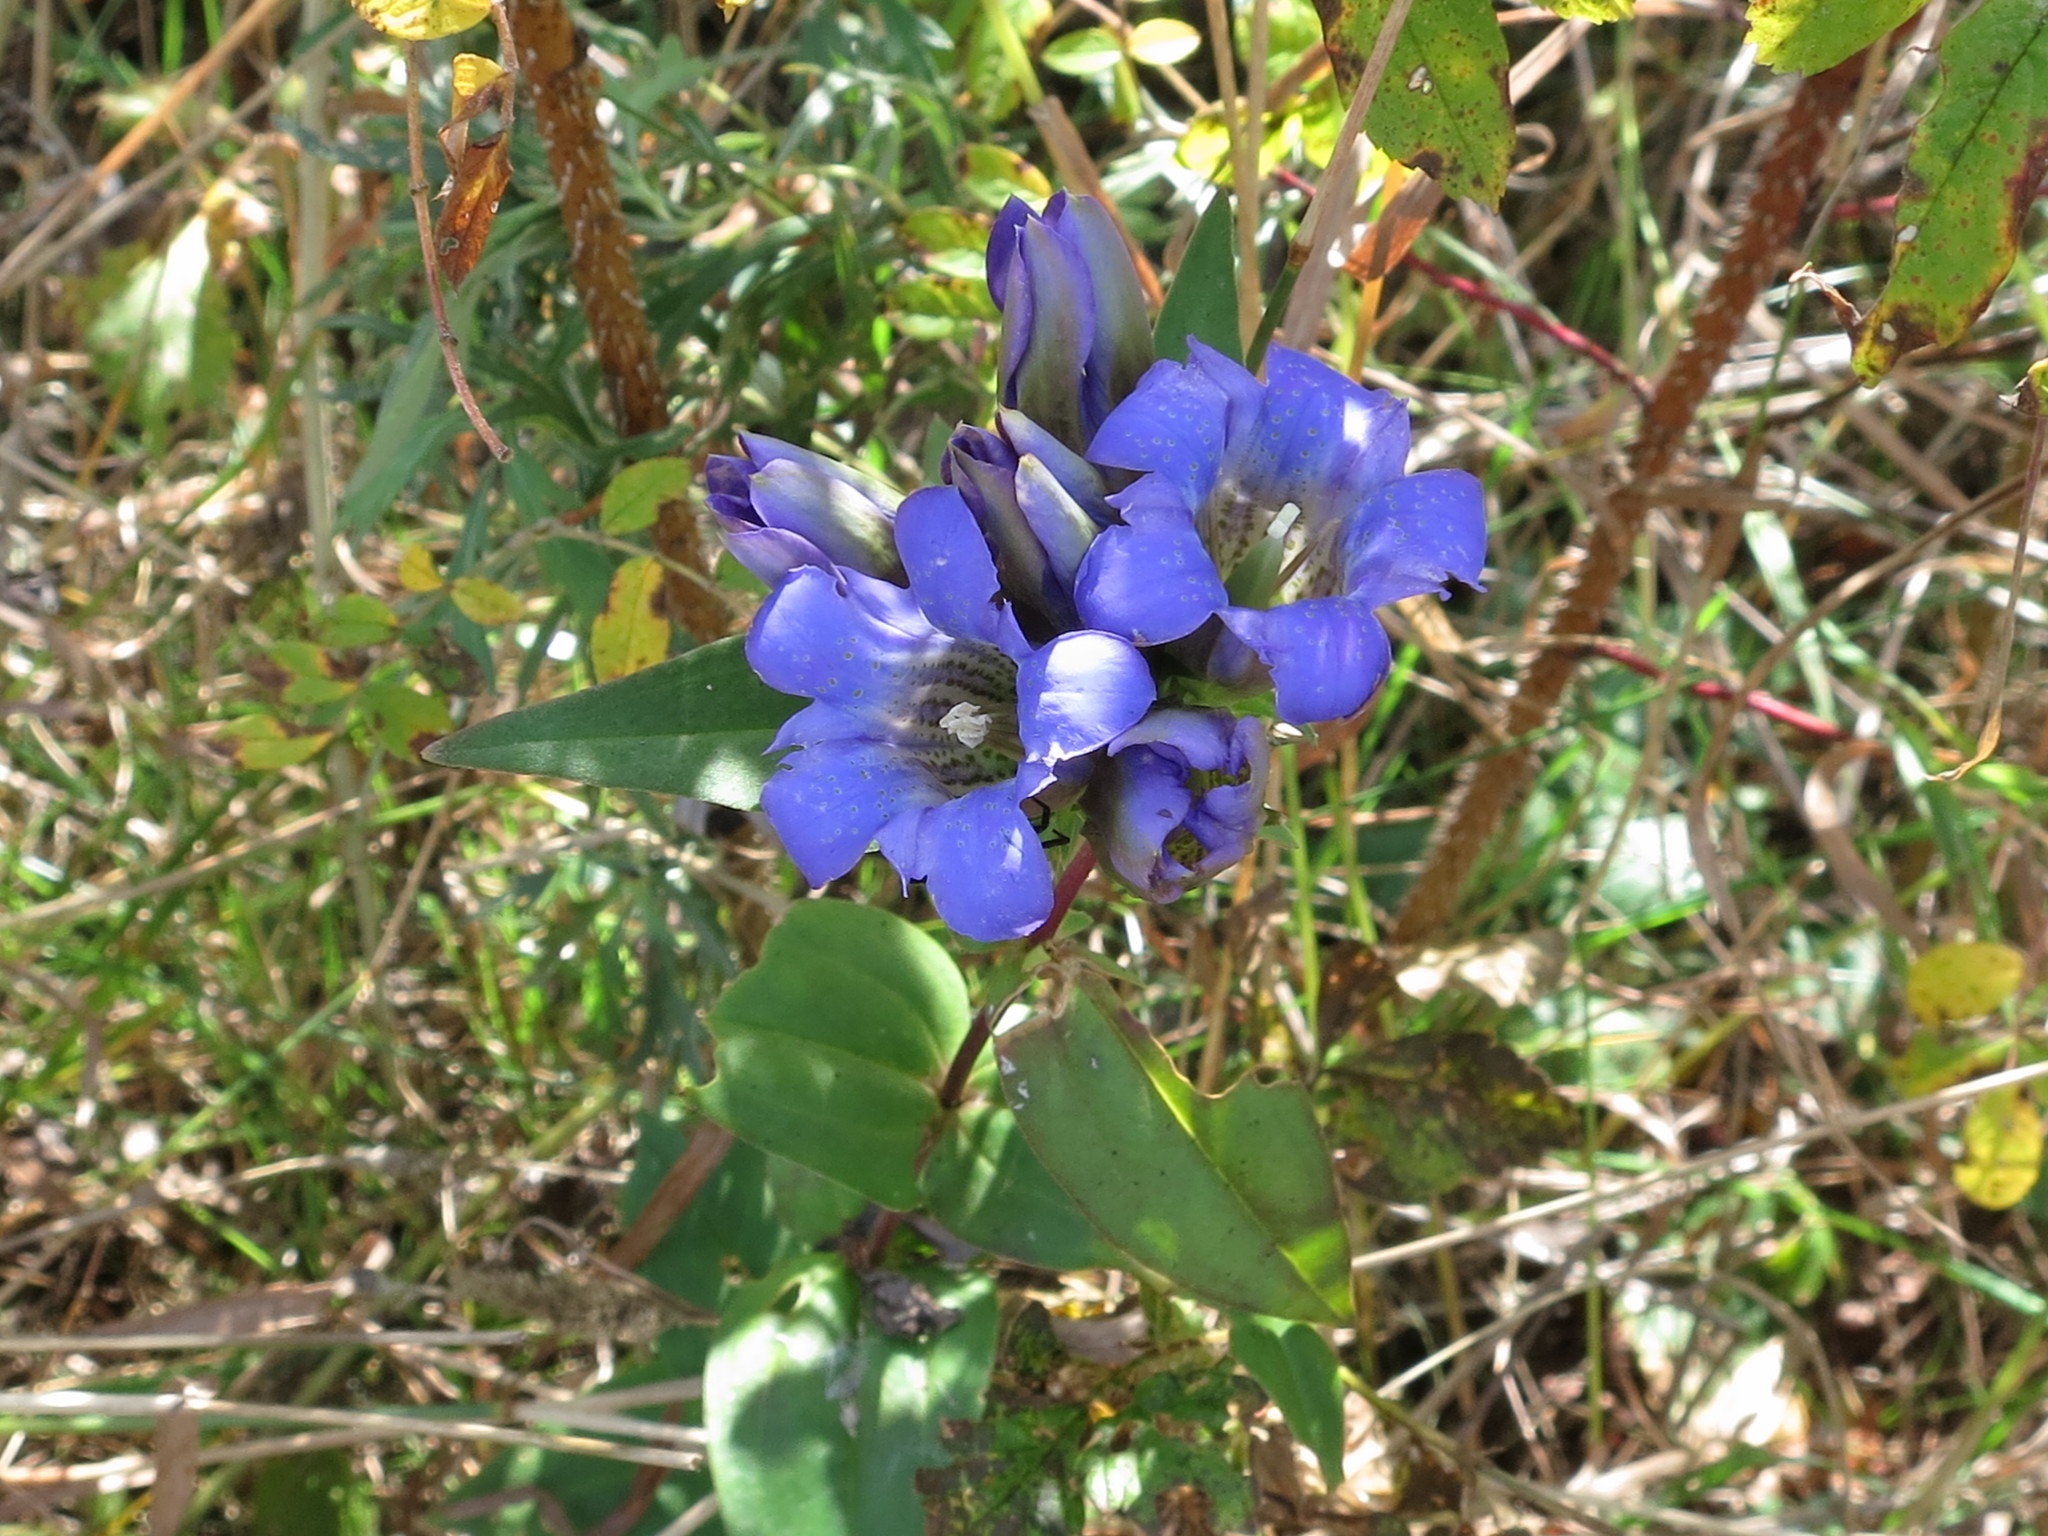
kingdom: Plantae
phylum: Tracheophyta
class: Magnoliopsida
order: Gentianales
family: Gentianaceae
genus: Gentiana
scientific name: Gentiana scabra
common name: Scabrous gentian
